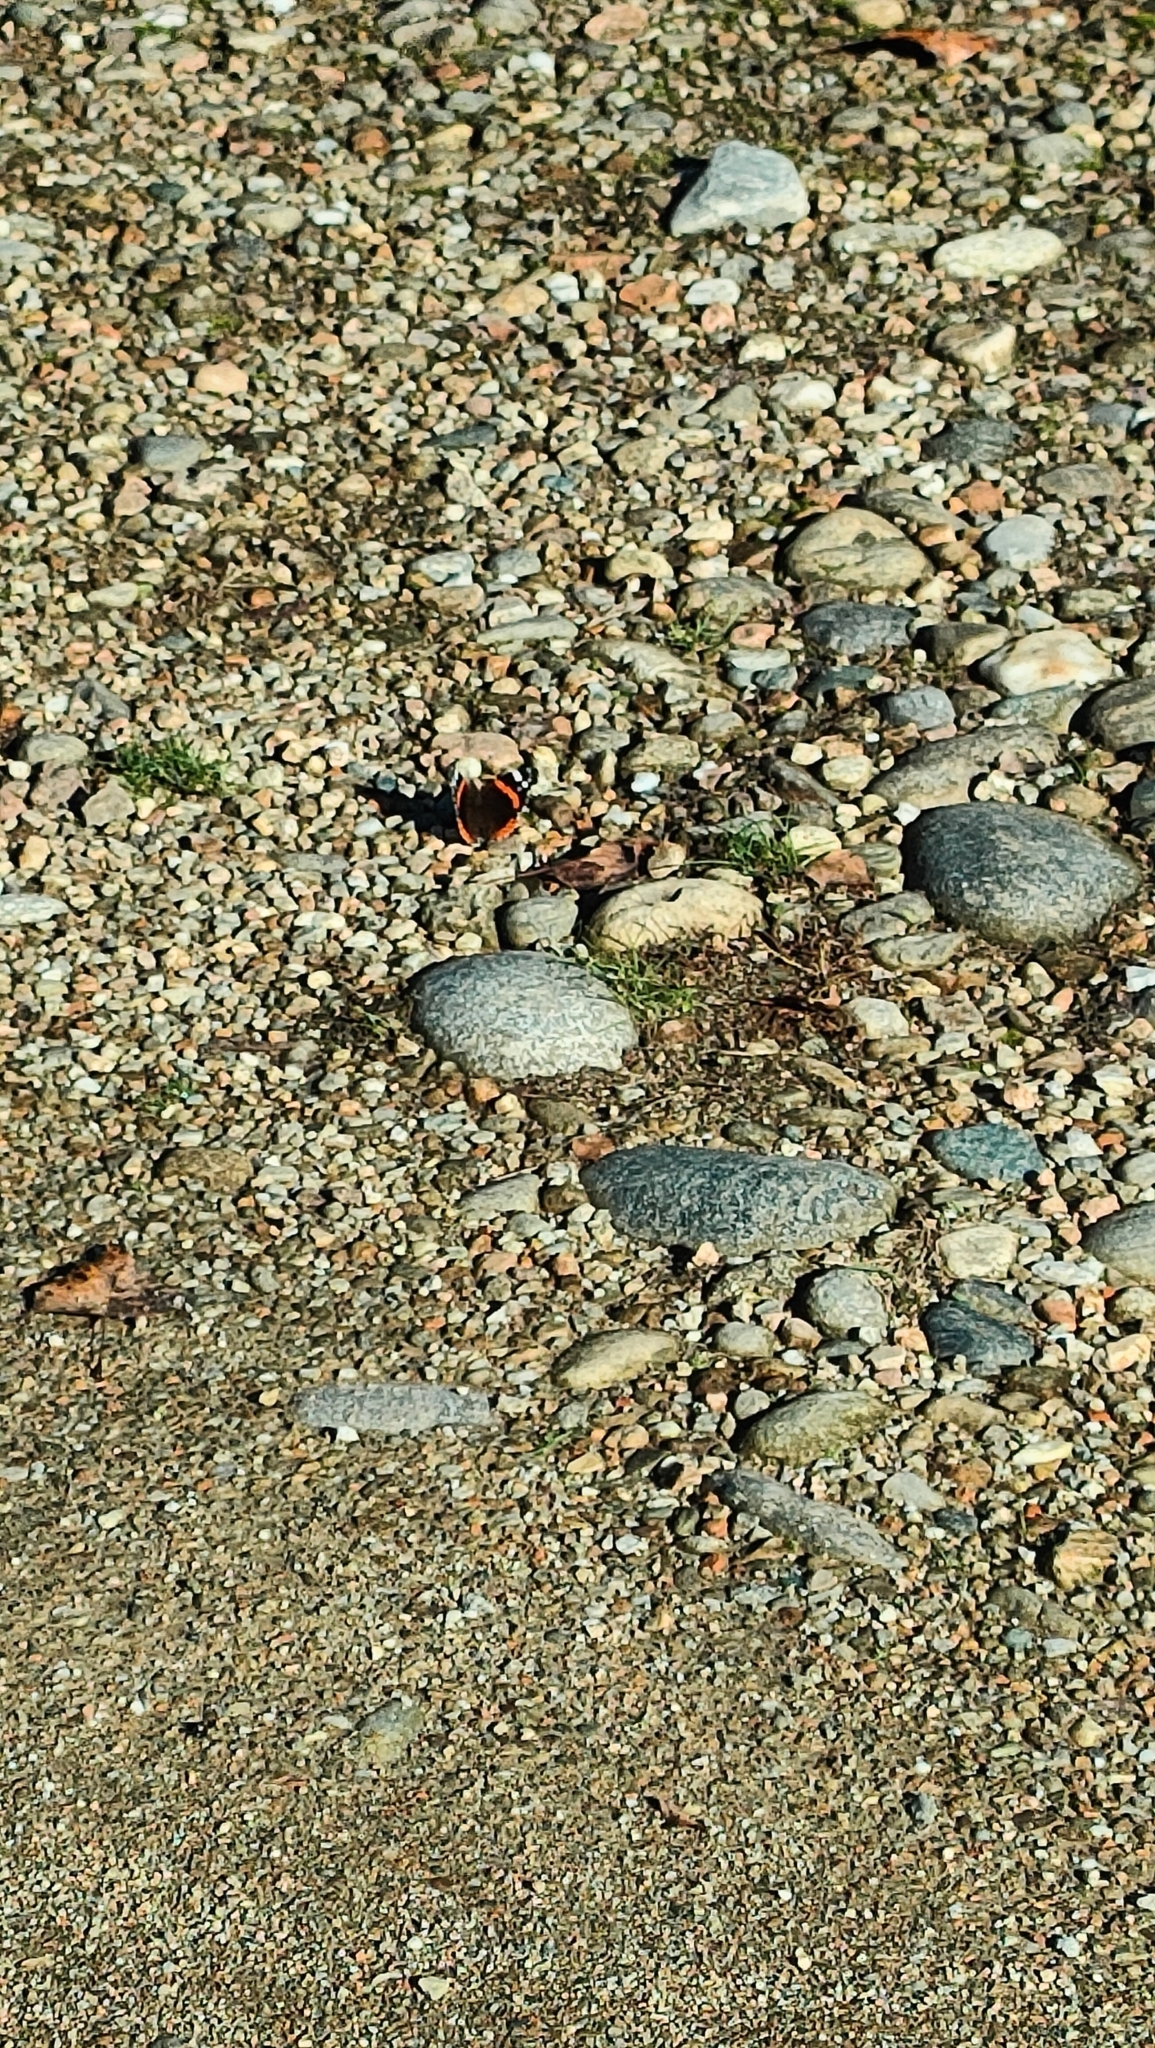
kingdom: Animalia
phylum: Arthropoda
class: Insecta
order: Lepidoptera
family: Nymphalidae
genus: Vanessa
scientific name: Vanessa atalanta
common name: Red admiral
